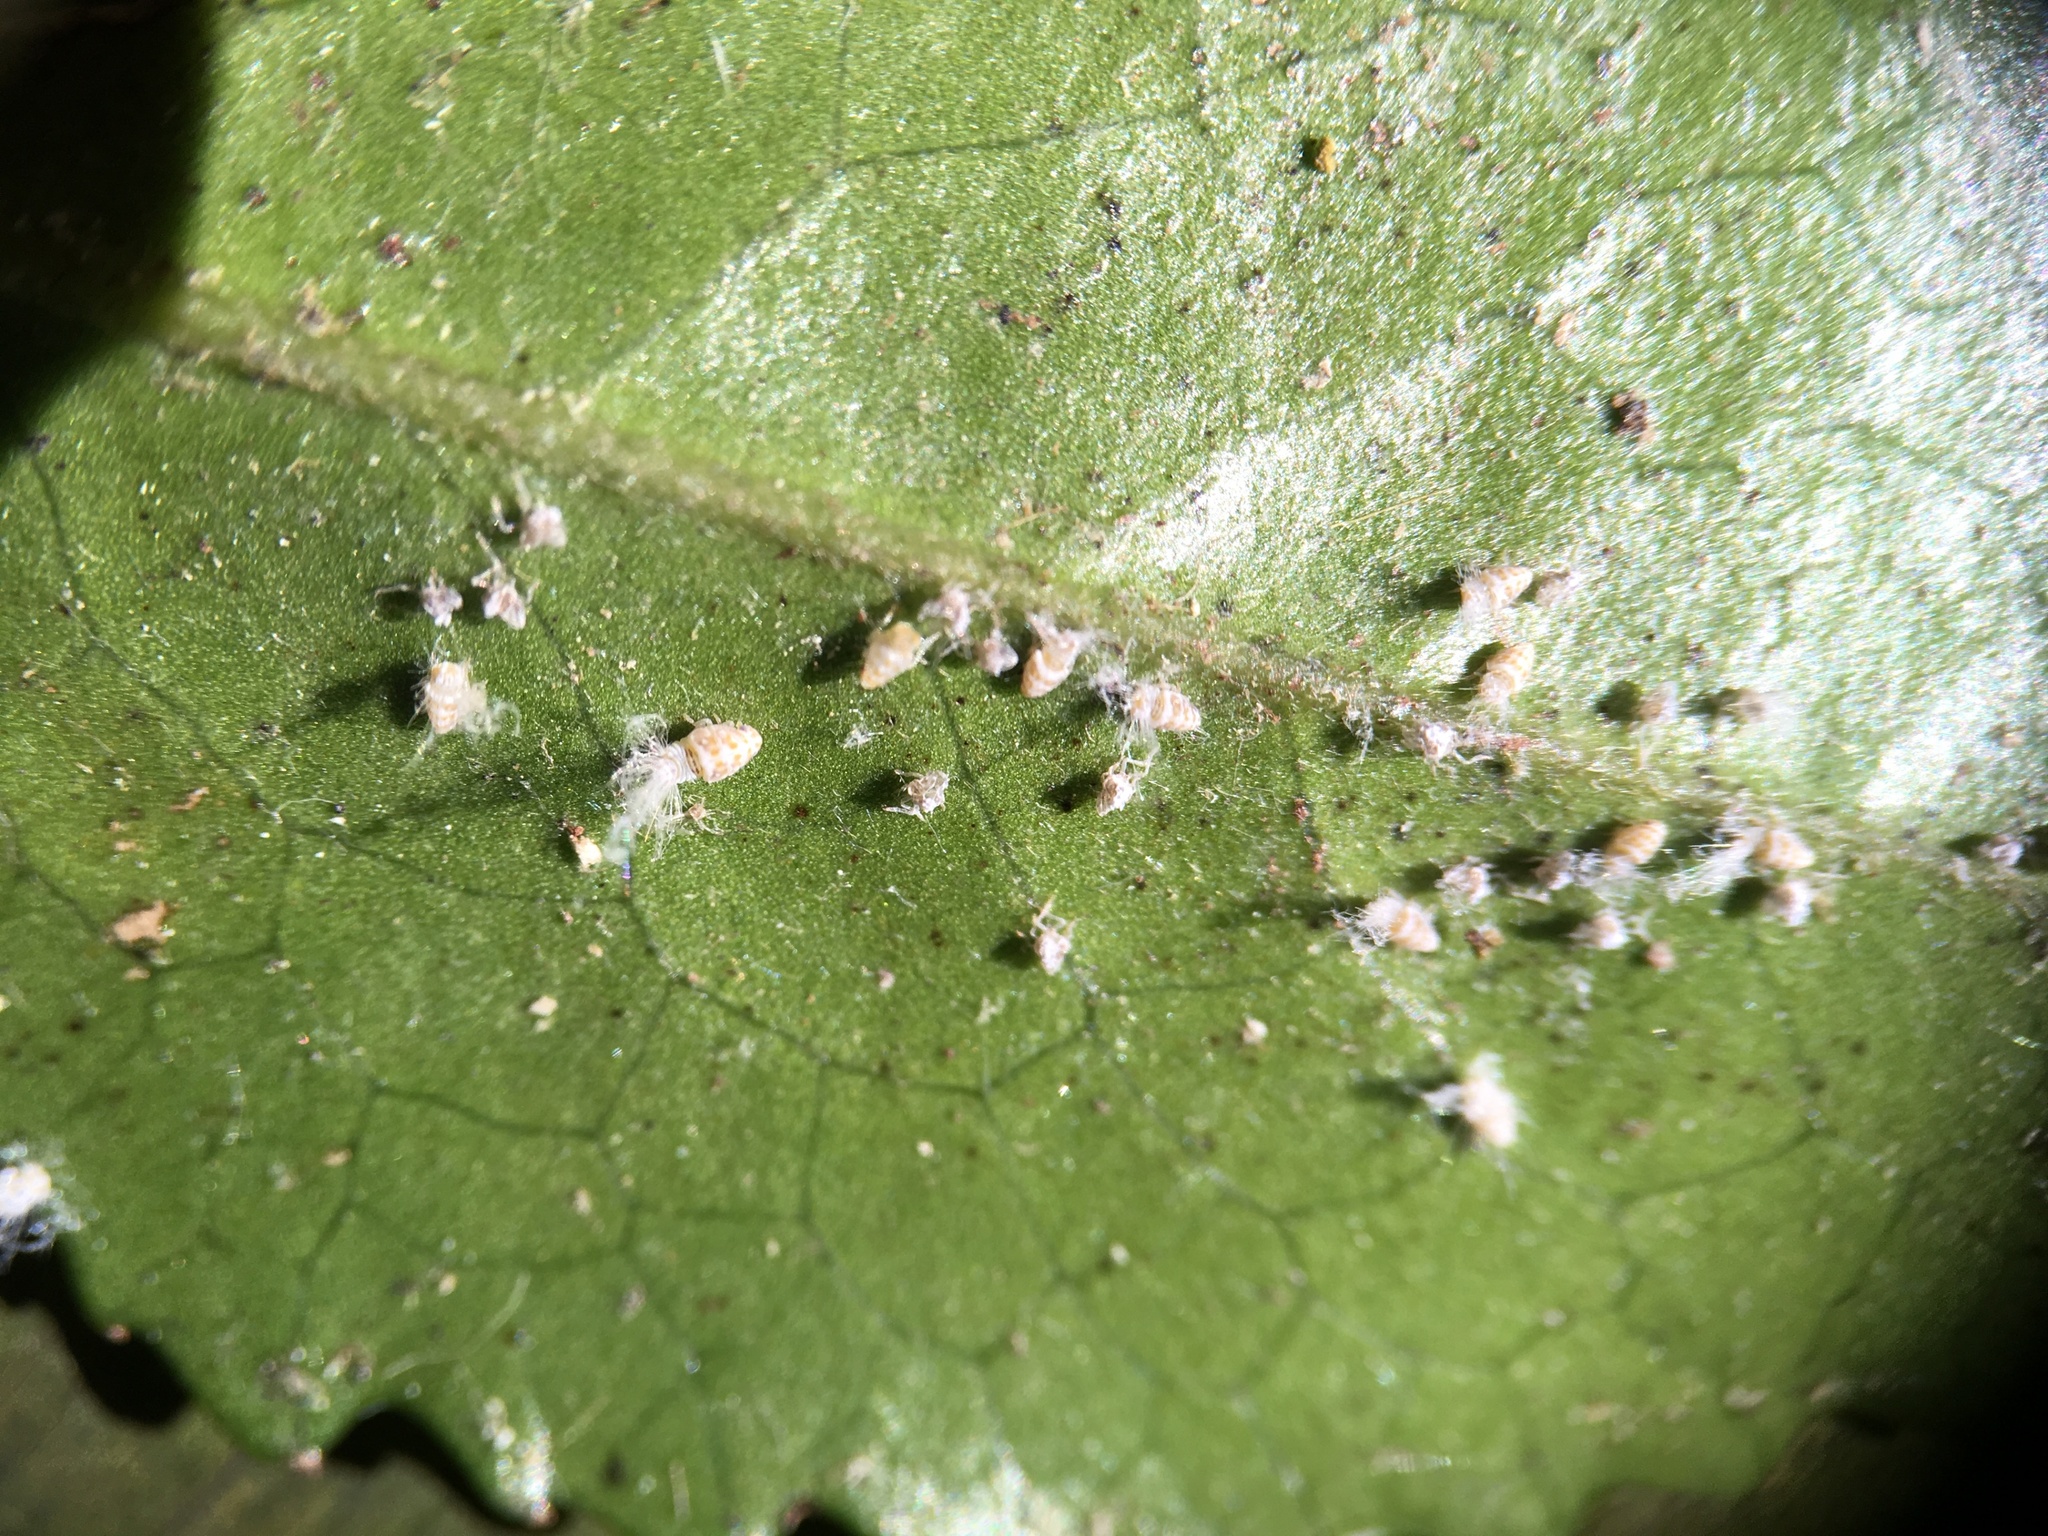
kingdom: Animalia
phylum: Arthropoda
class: Insecta
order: Hemiptera
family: Ricaniidae
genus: Scolypopa
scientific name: Scolypopa australis
